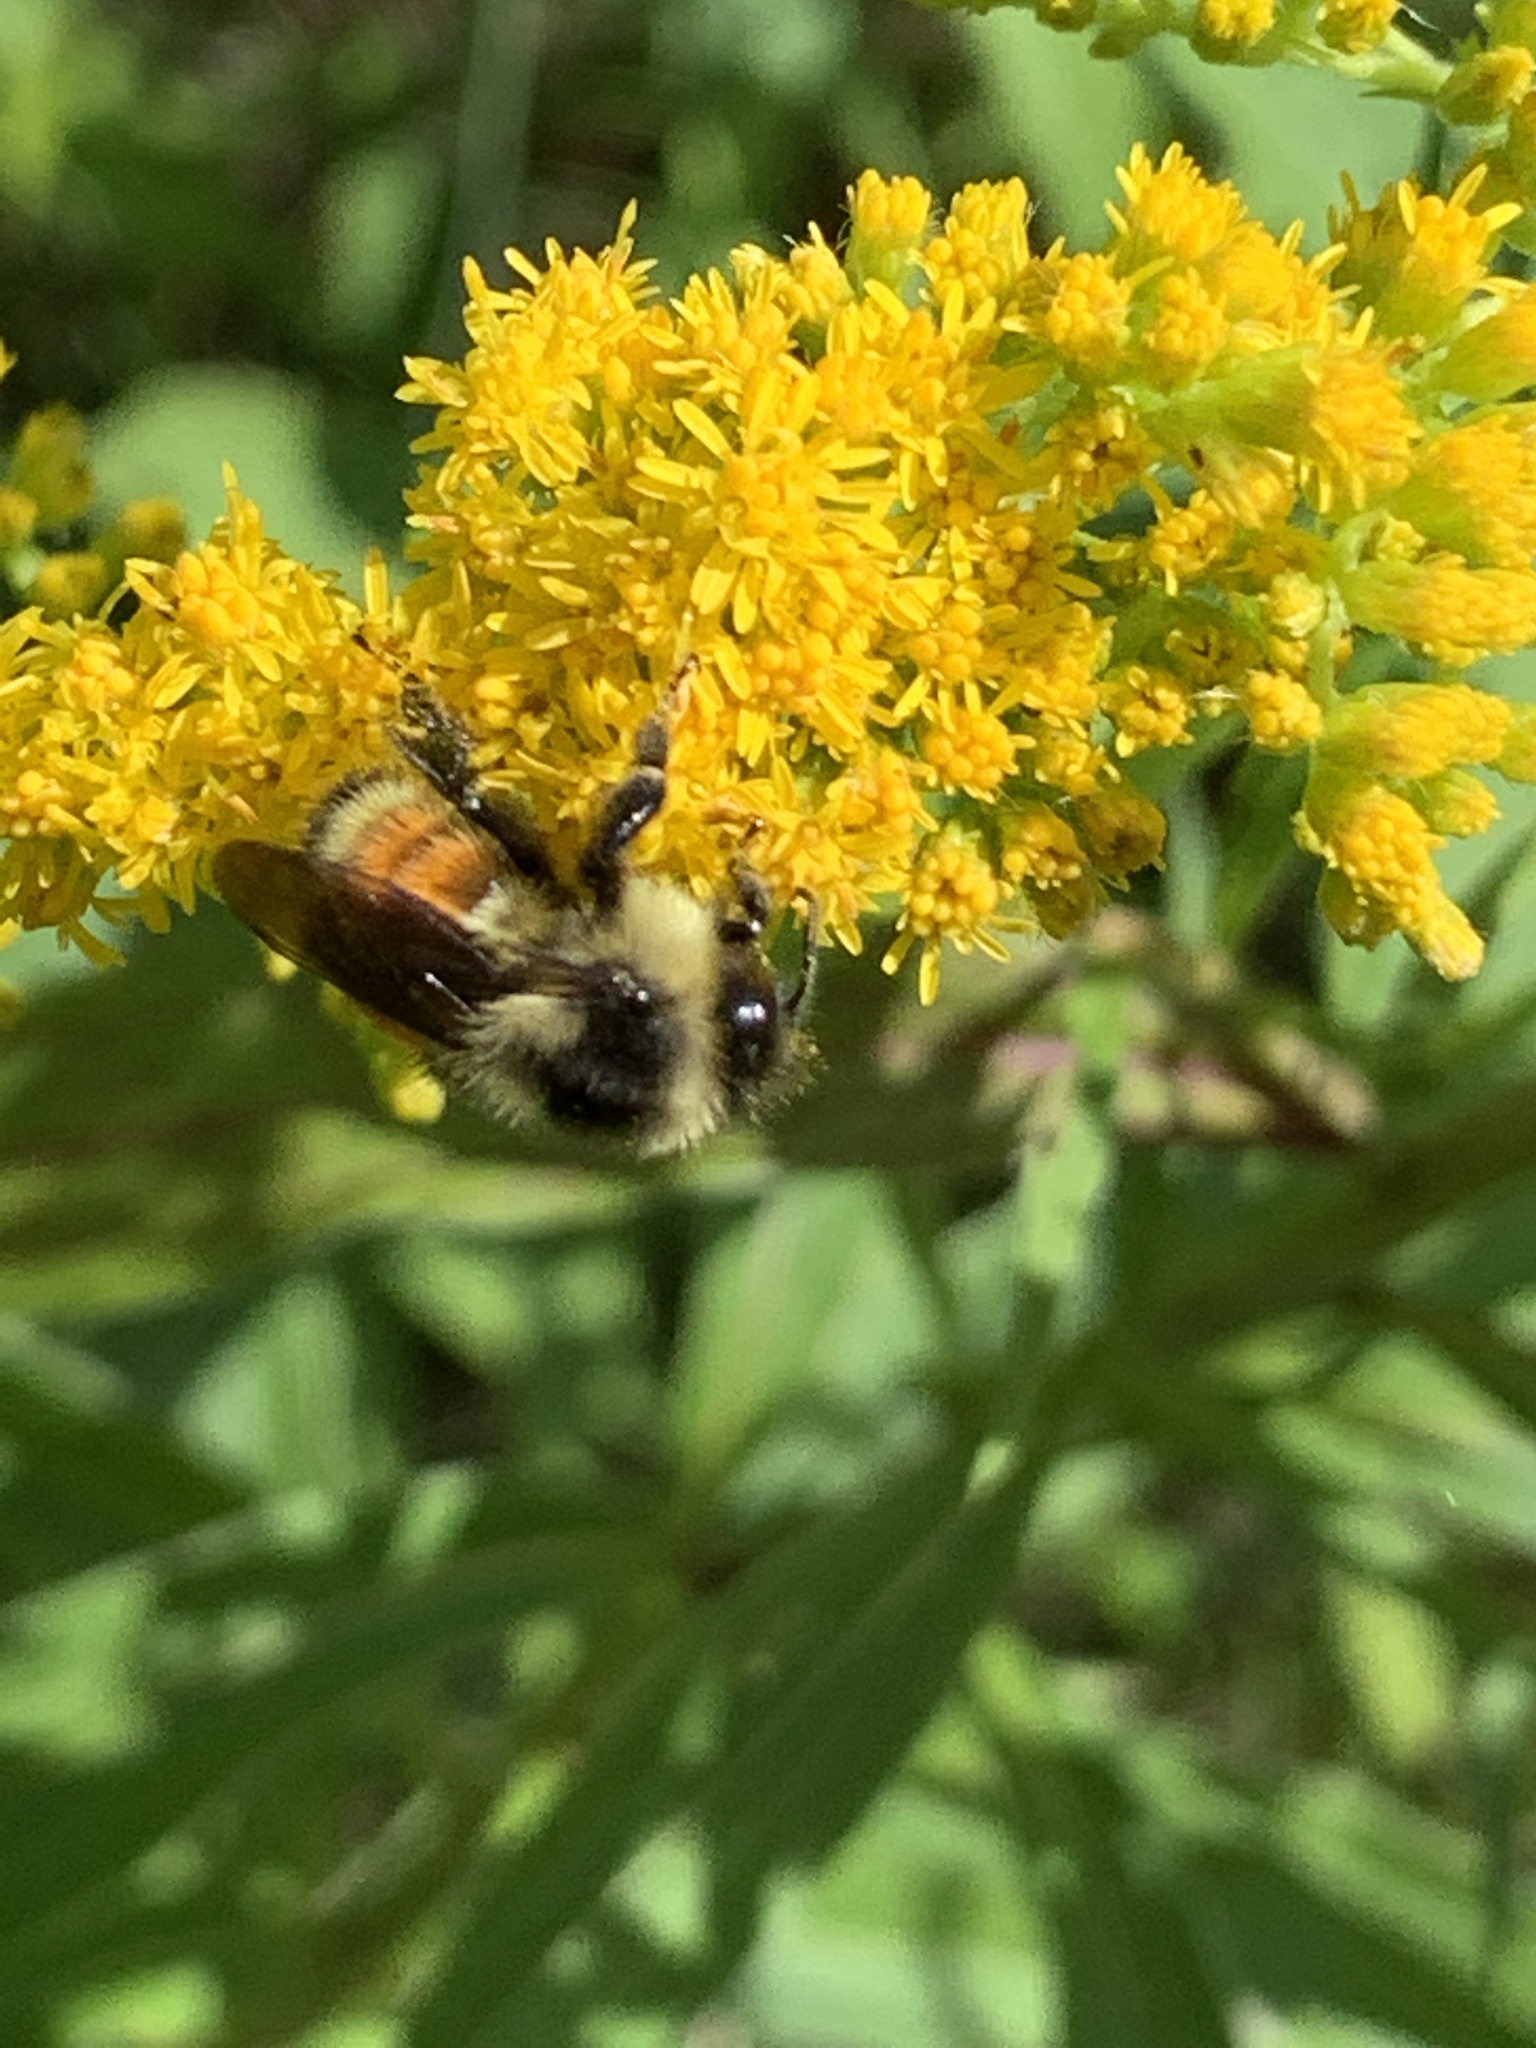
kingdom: Animalia
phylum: Arthropoda
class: Insecta
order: Hymenoptera
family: Apidae
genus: Bombus
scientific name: Bombus ternarius
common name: Tri-colored bumble bee
